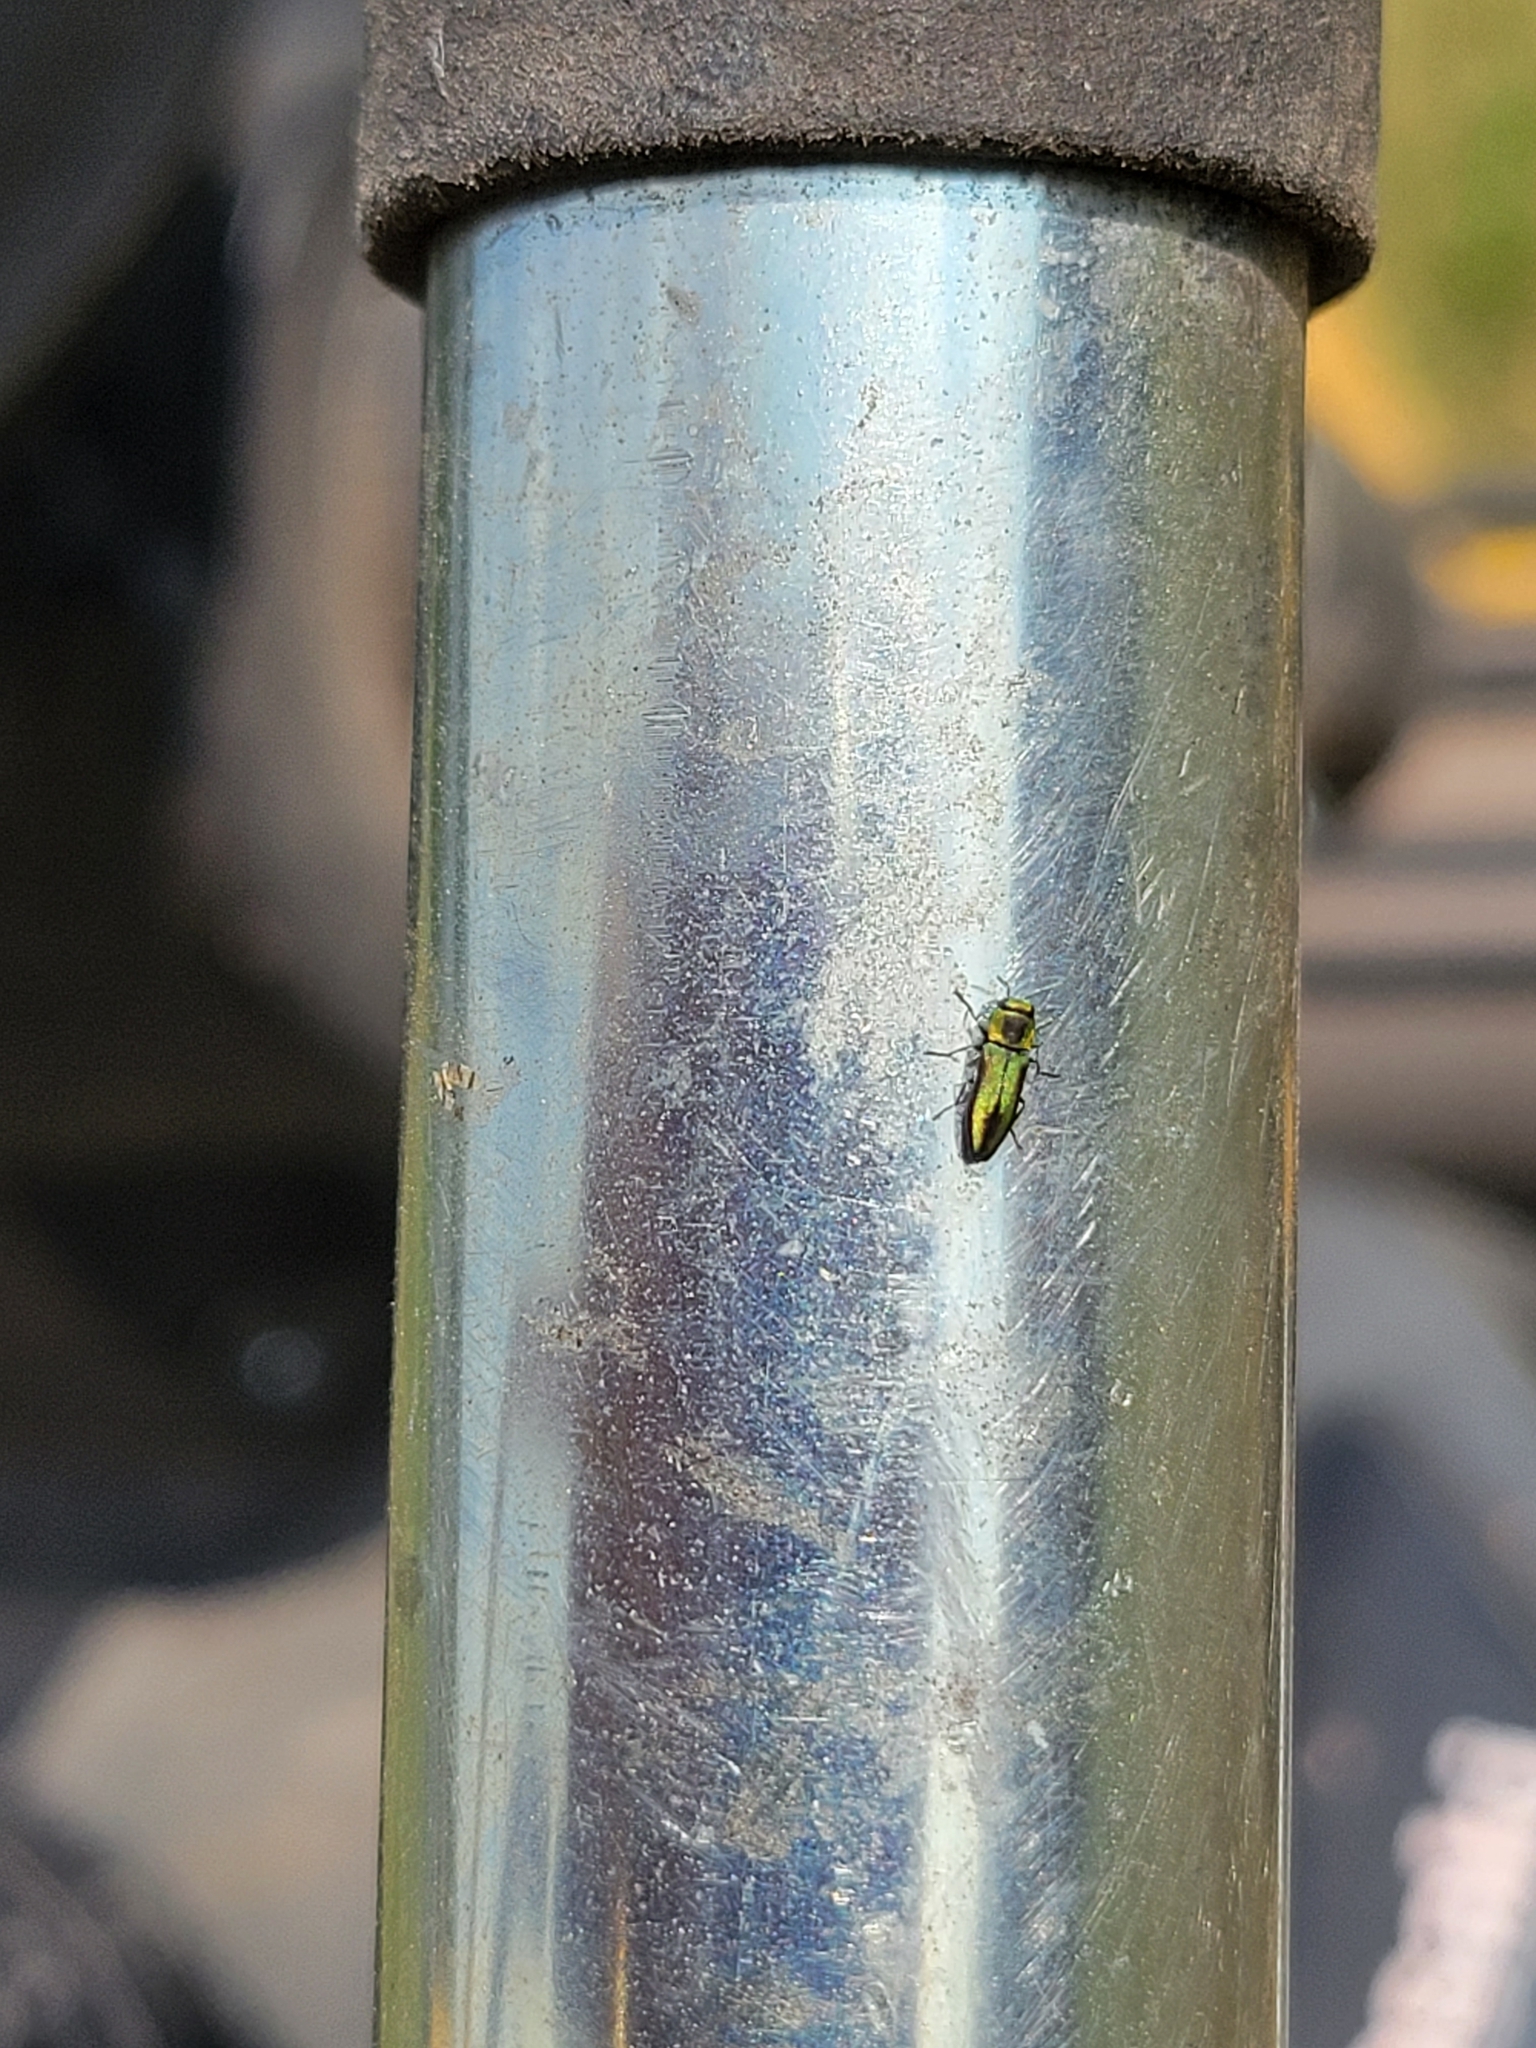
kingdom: Animalia
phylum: Arthropoda
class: Insecta
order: Coleoptera
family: Buprestidae
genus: Anthaxia
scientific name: Anthaxia quercata
